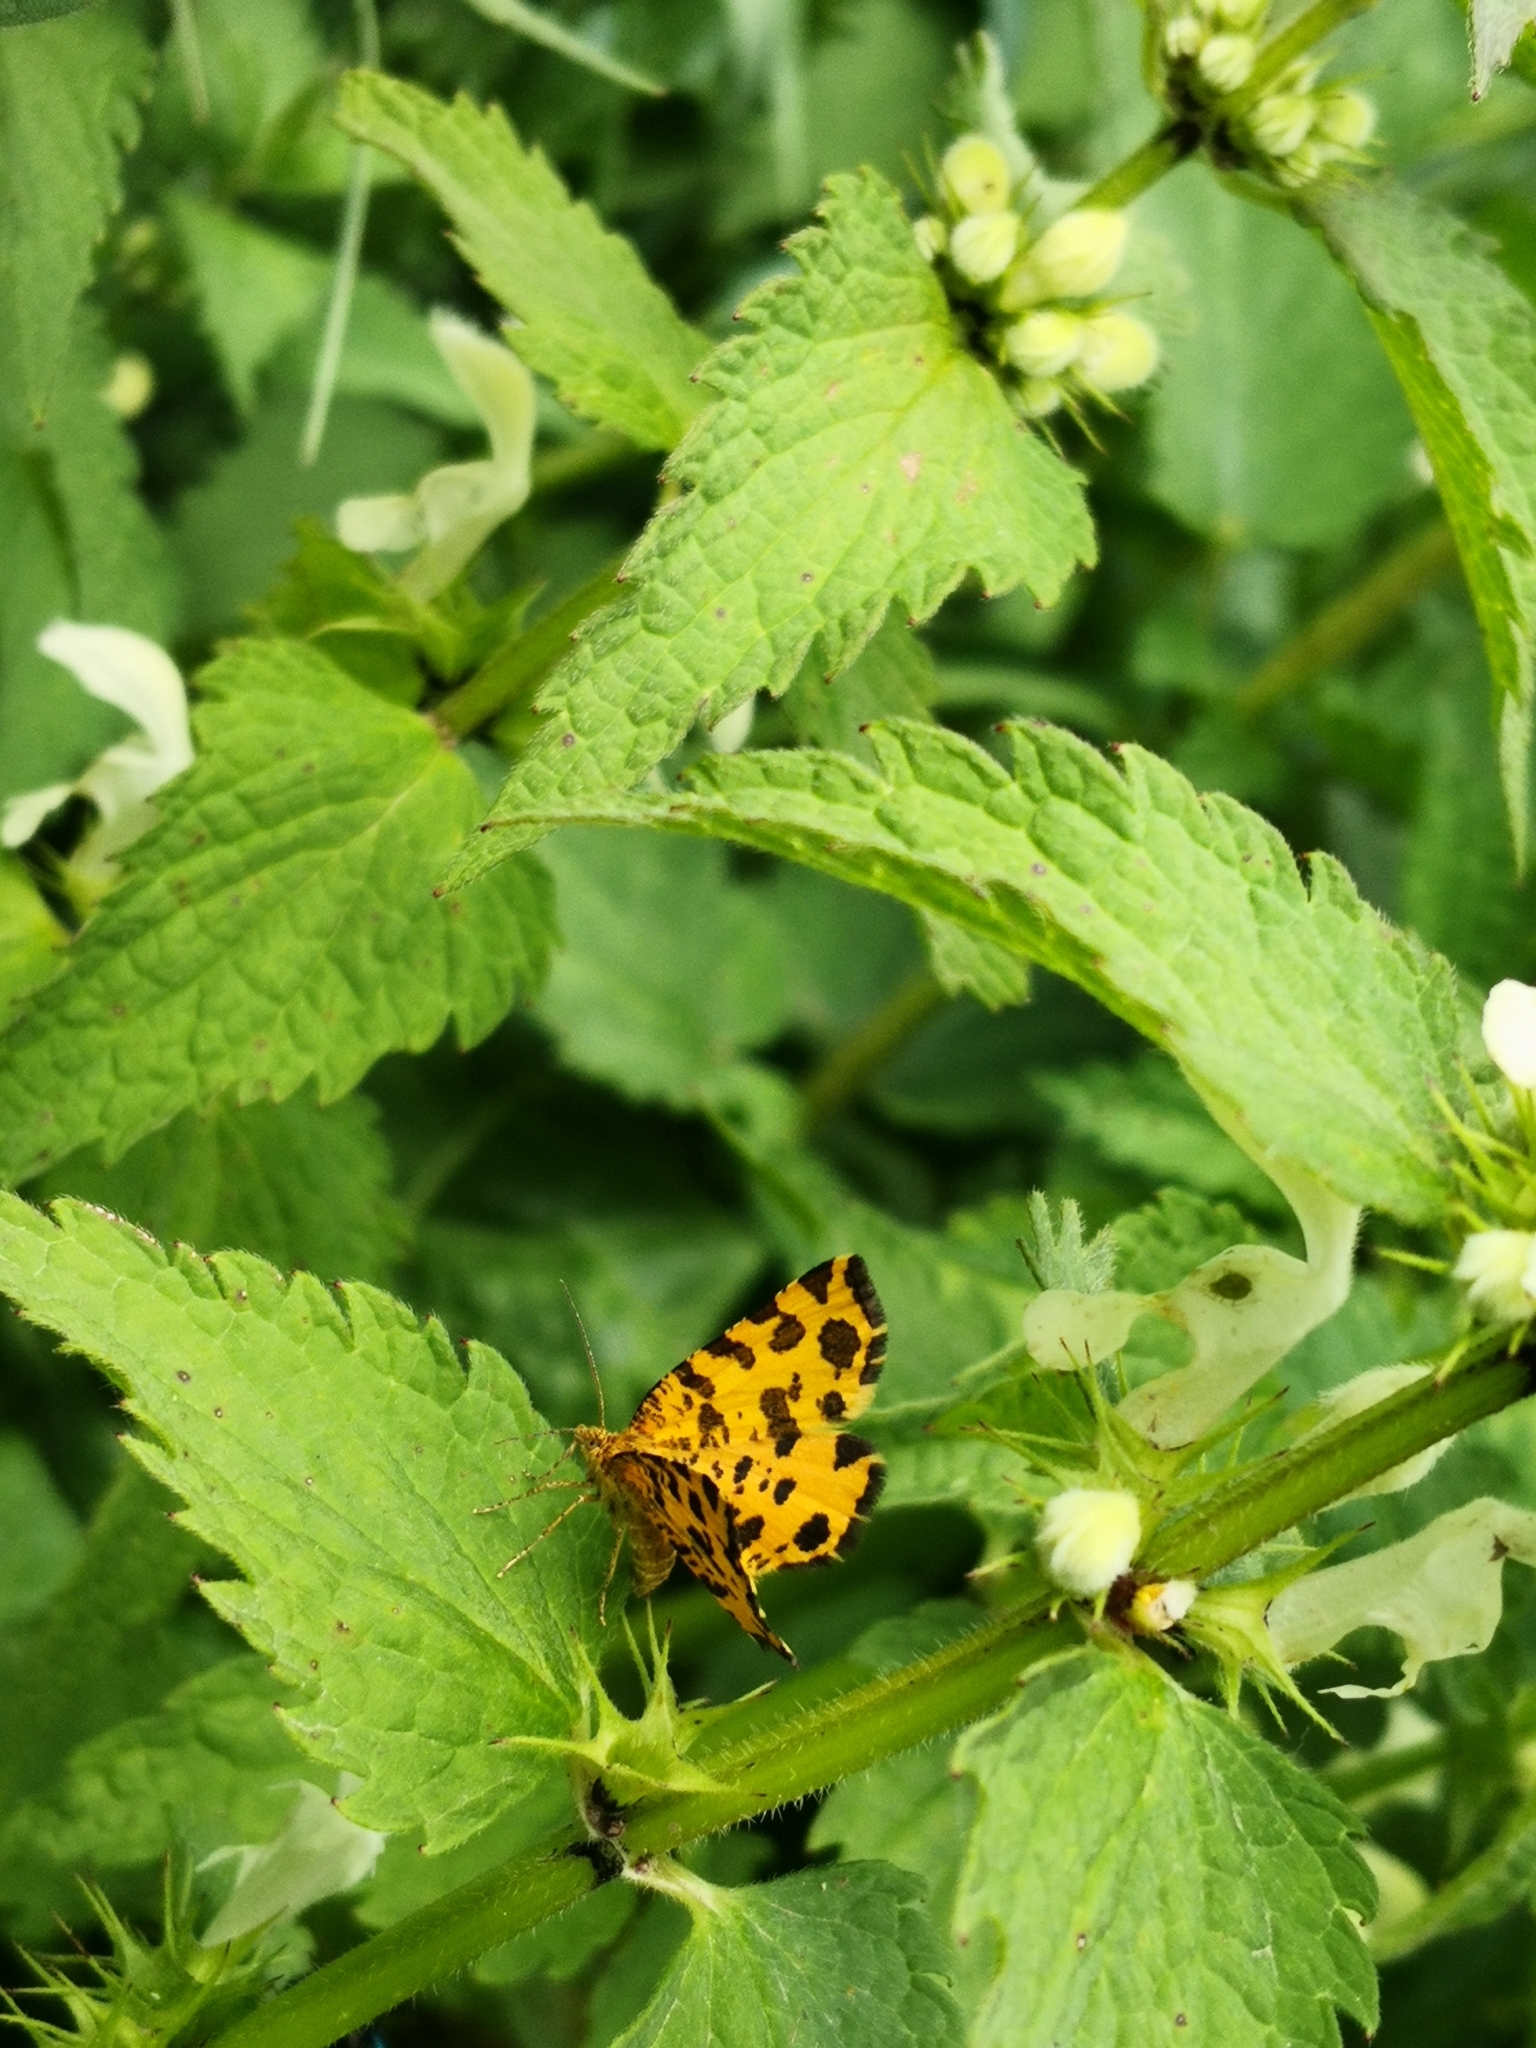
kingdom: Animalia
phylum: Arthropoda
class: Insecta
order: Lepidoptera
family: Geometridae
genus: Pseudopanthera
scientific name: Pseudopanthera macularia
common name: Speckled yellow
